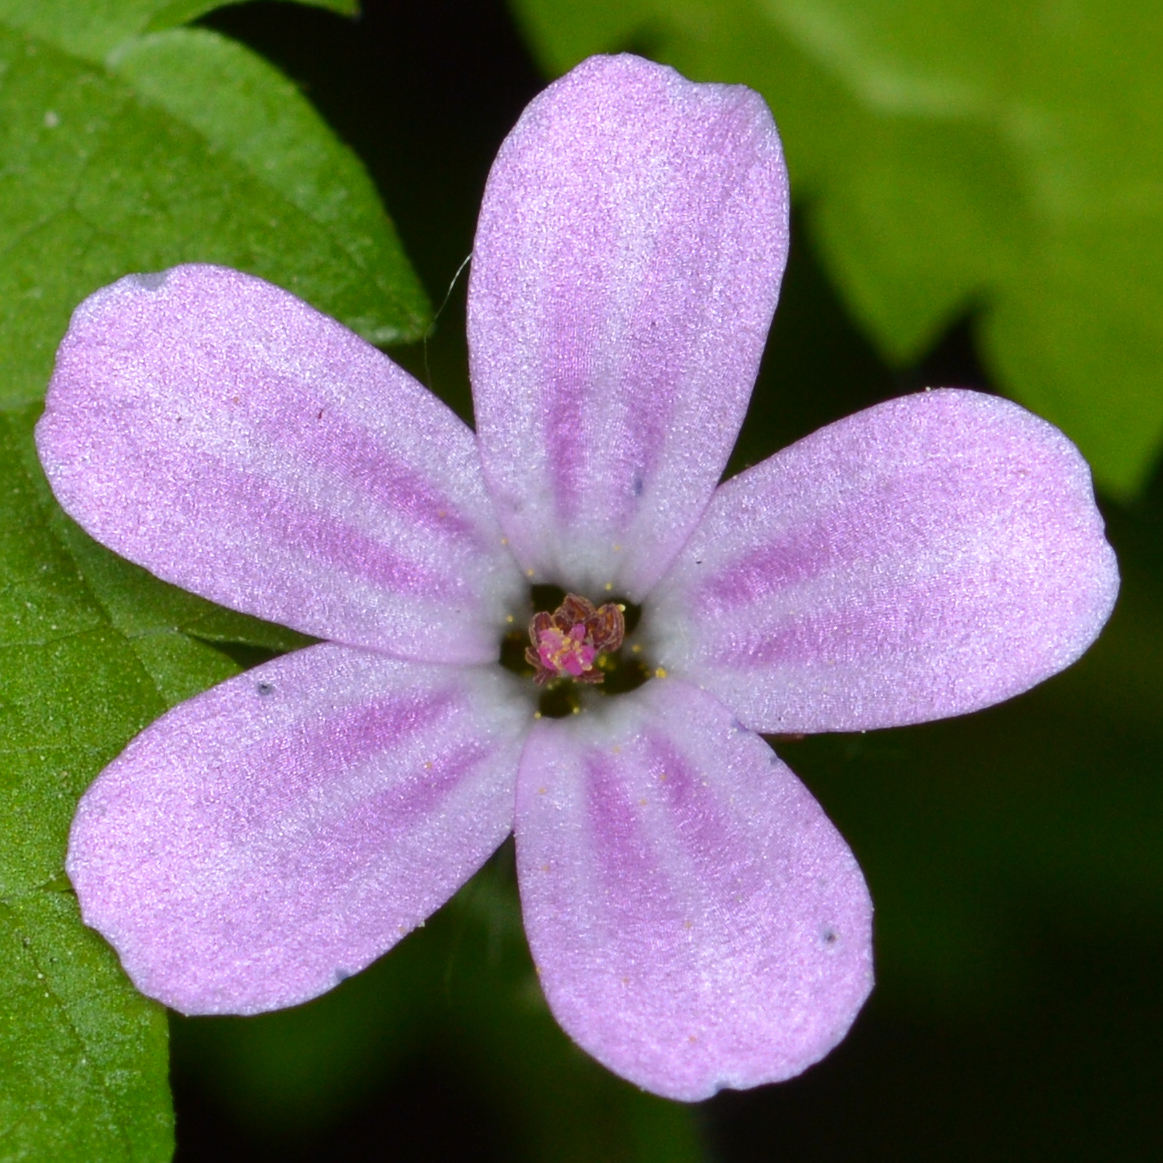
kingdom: Plantae
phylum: Tracheophyta
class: Magnoliopsida
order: Geraniales
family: Geraniaceae
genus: Geranium
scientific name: Geranium robertianum
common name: Herb-robert
